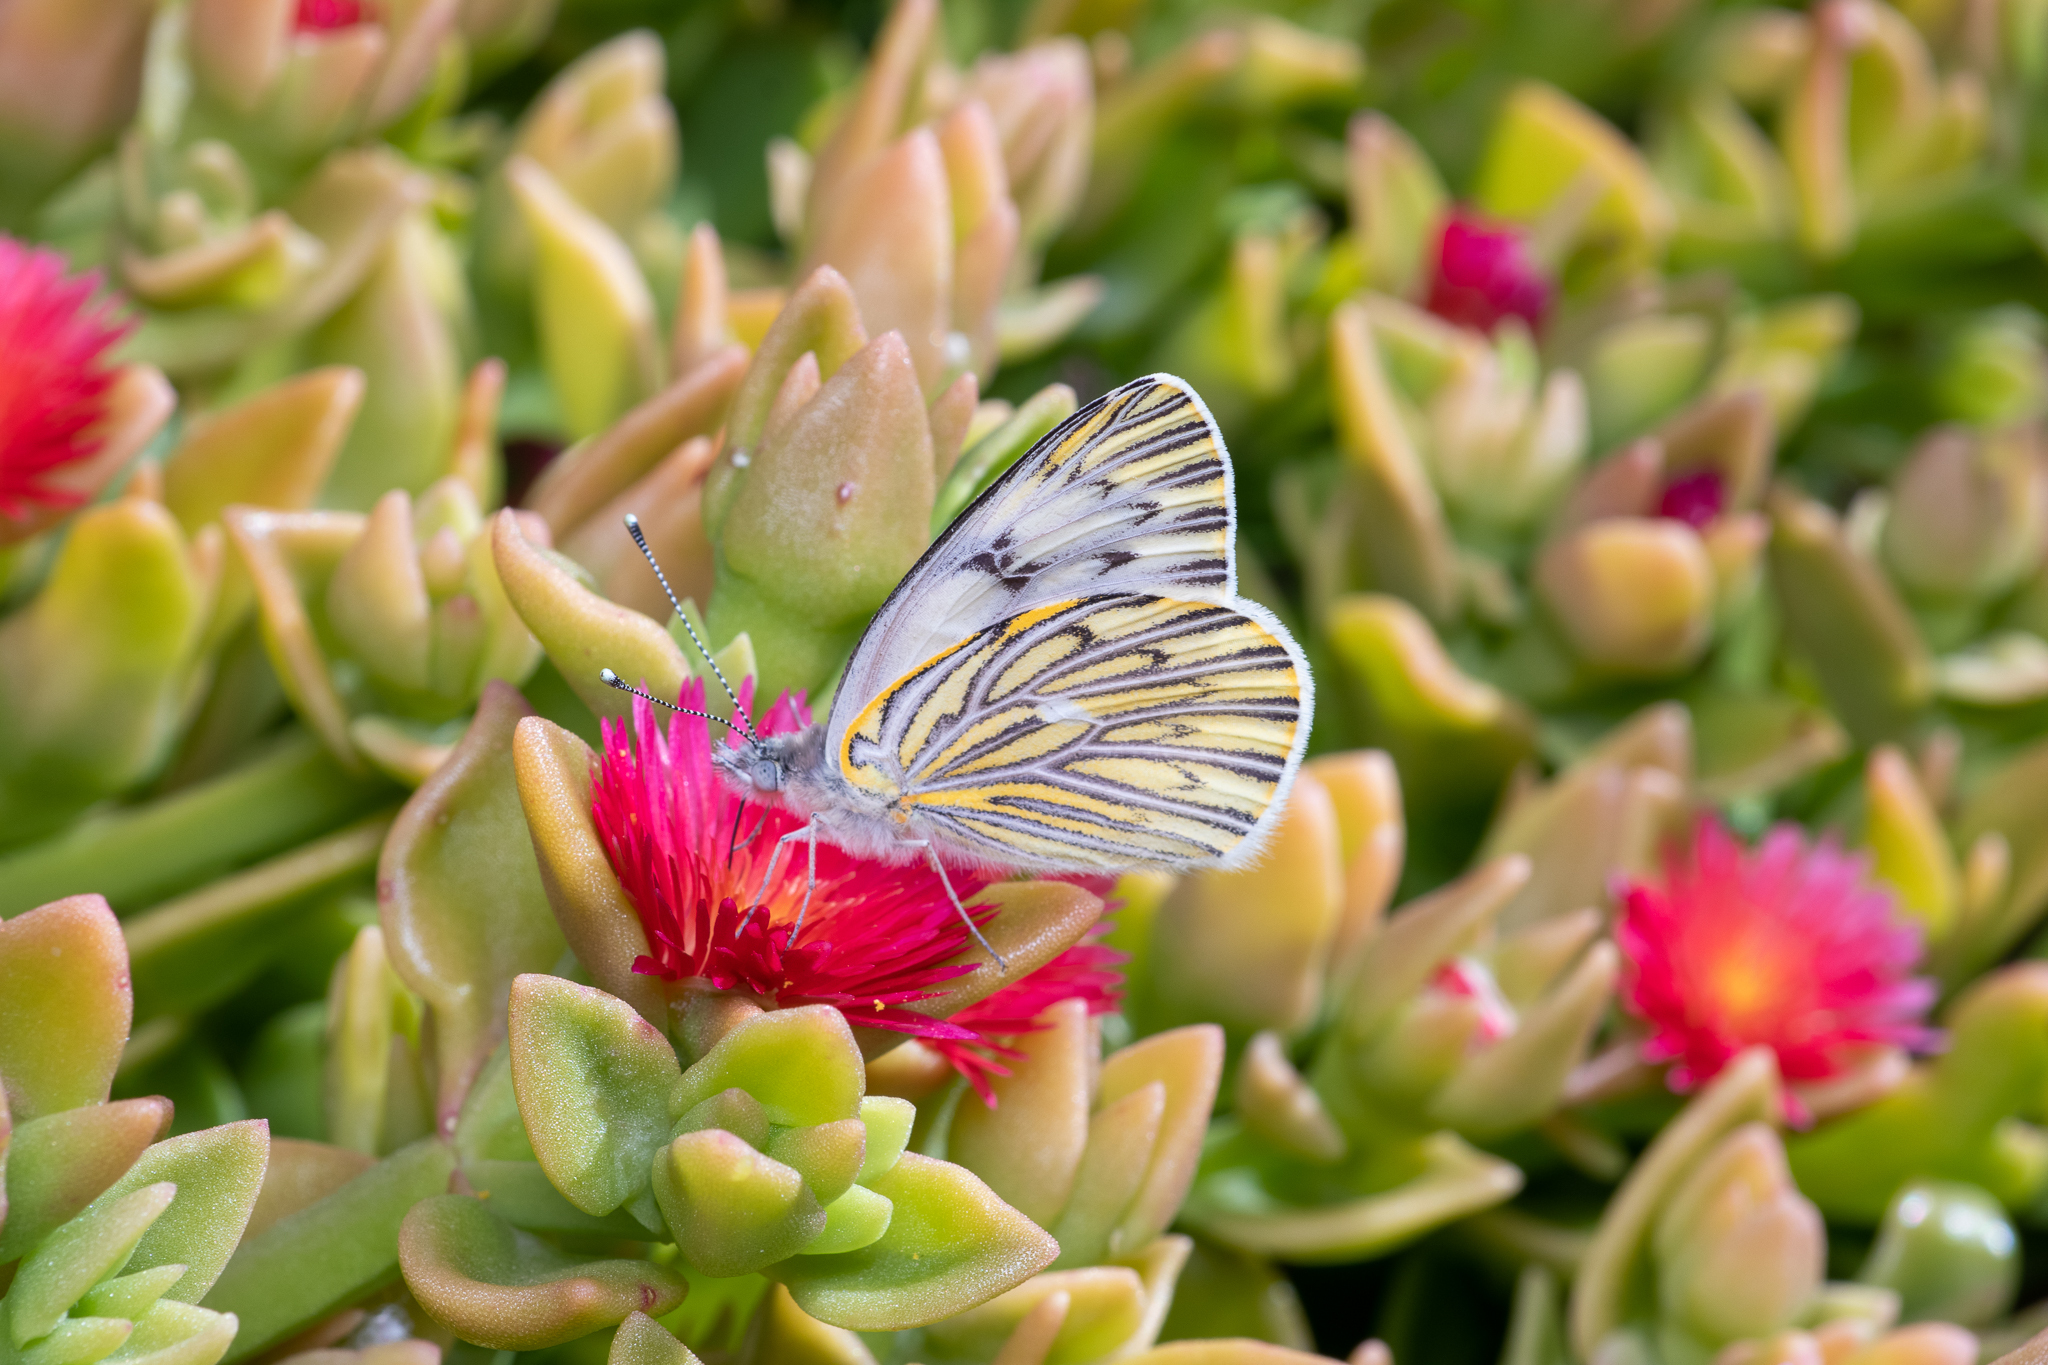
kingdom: Animalia
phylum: Arthropoda
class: Insecta
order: Lepidoptera
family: Pieridae
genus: Tatochila
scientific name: Tatochila mercedis
